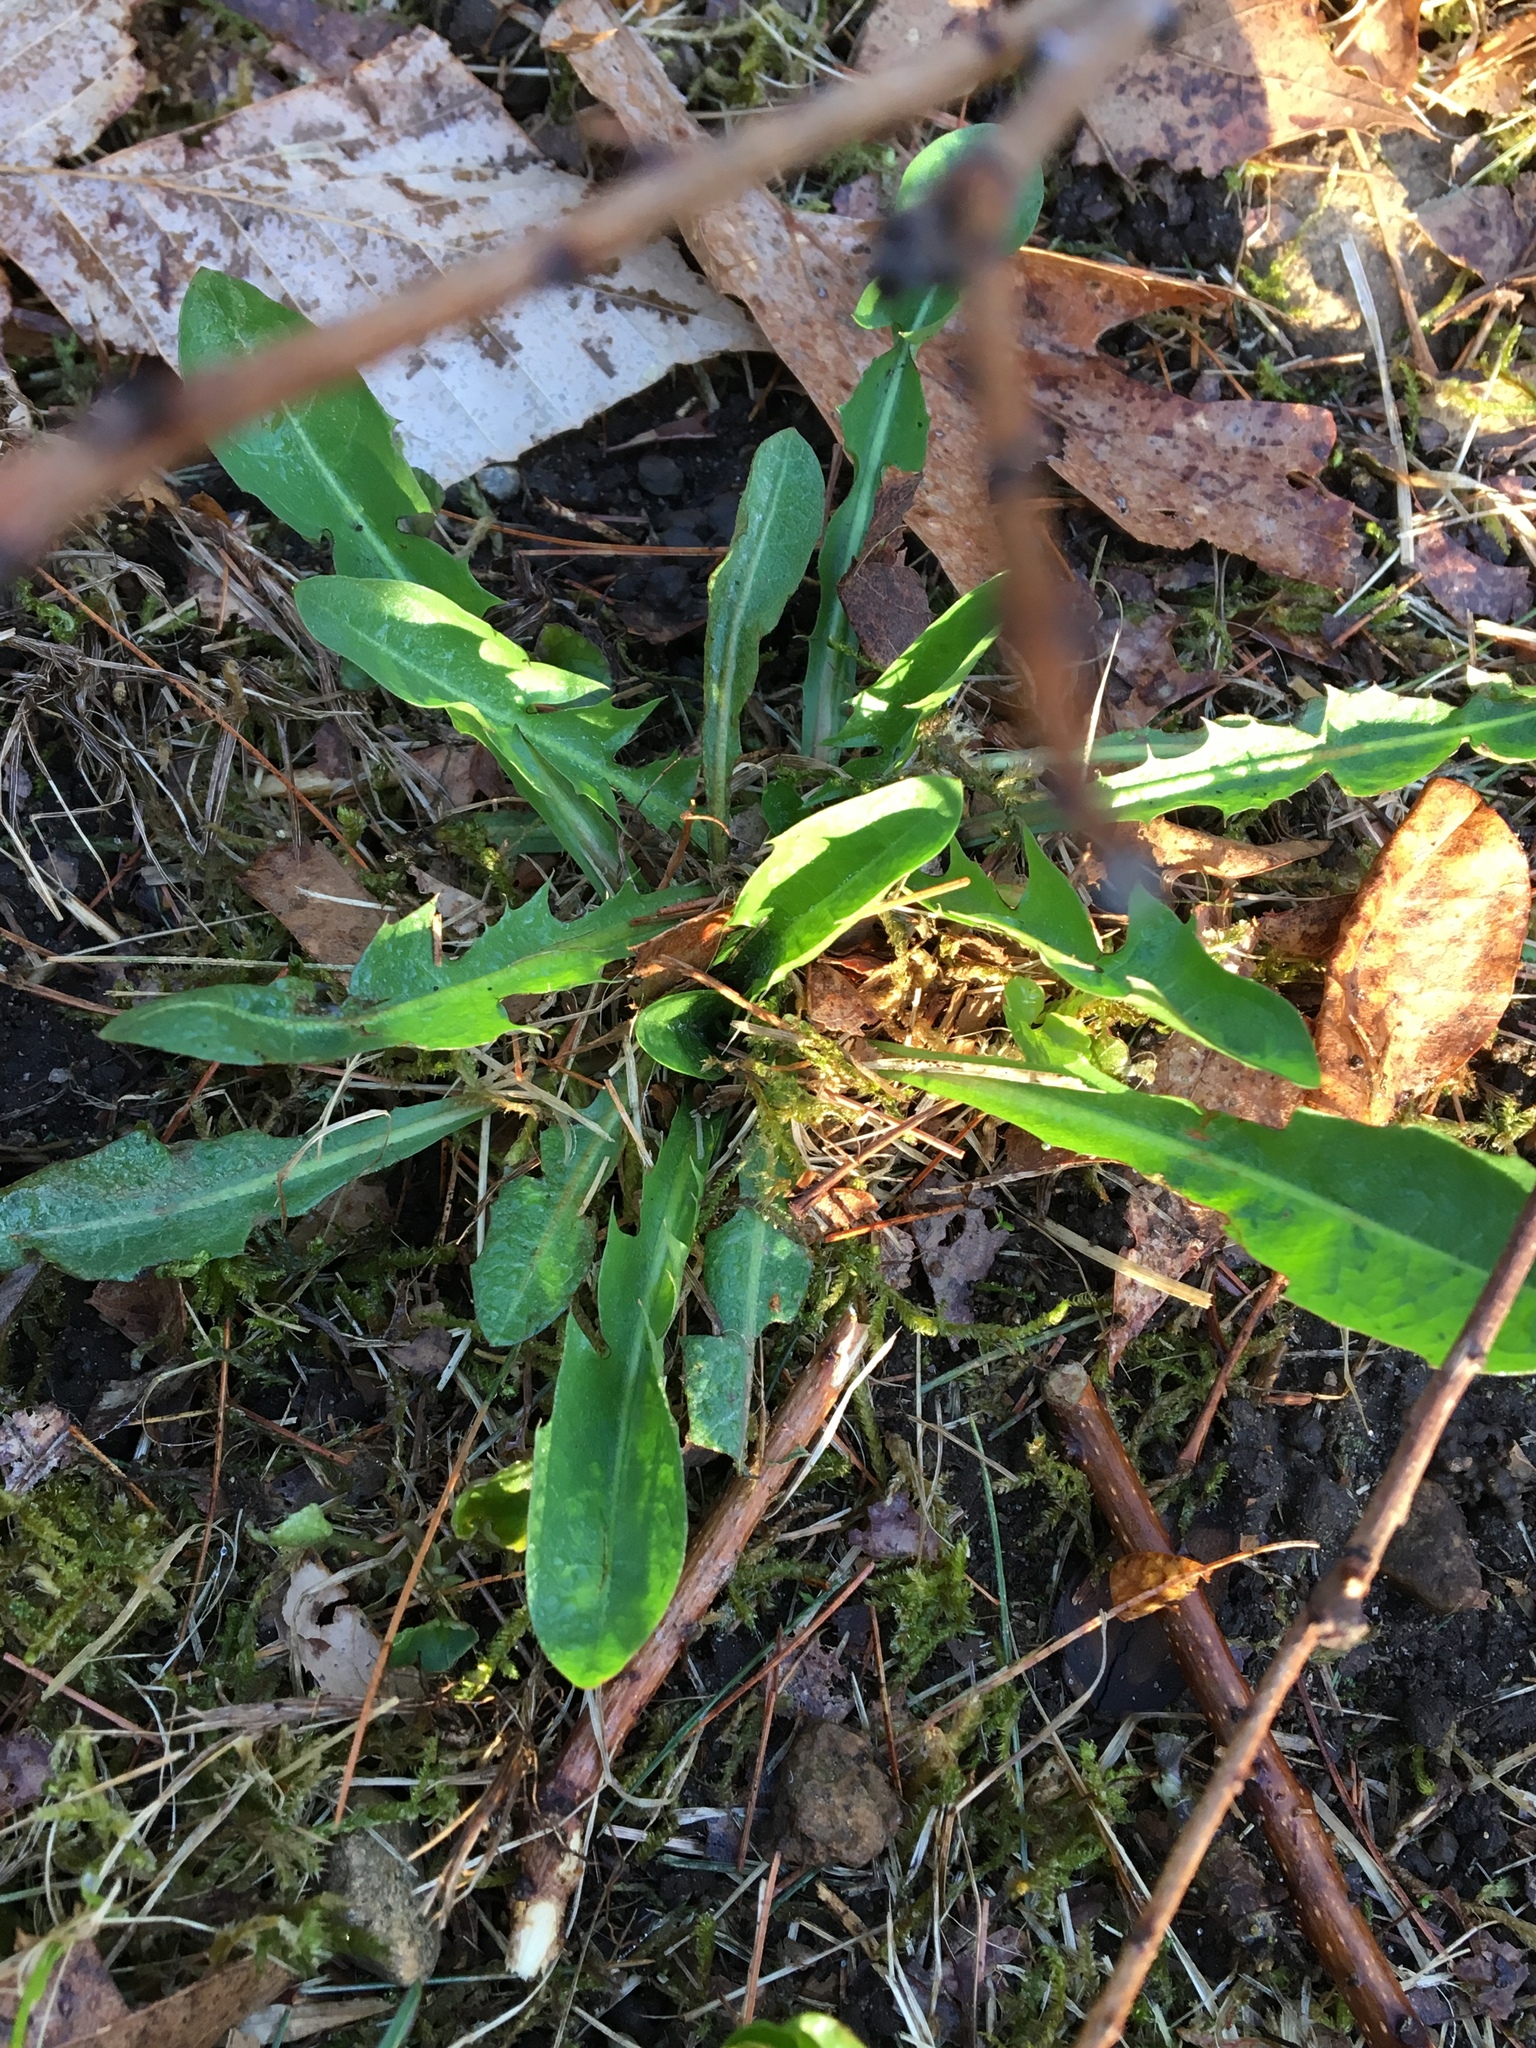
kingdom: Plantae
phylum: Tracheophyta
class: Magnoliopsida
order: Asterales
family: Asteraceae
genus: Taraxacum
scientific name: Taraxacum officinale
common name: Common dandelion
